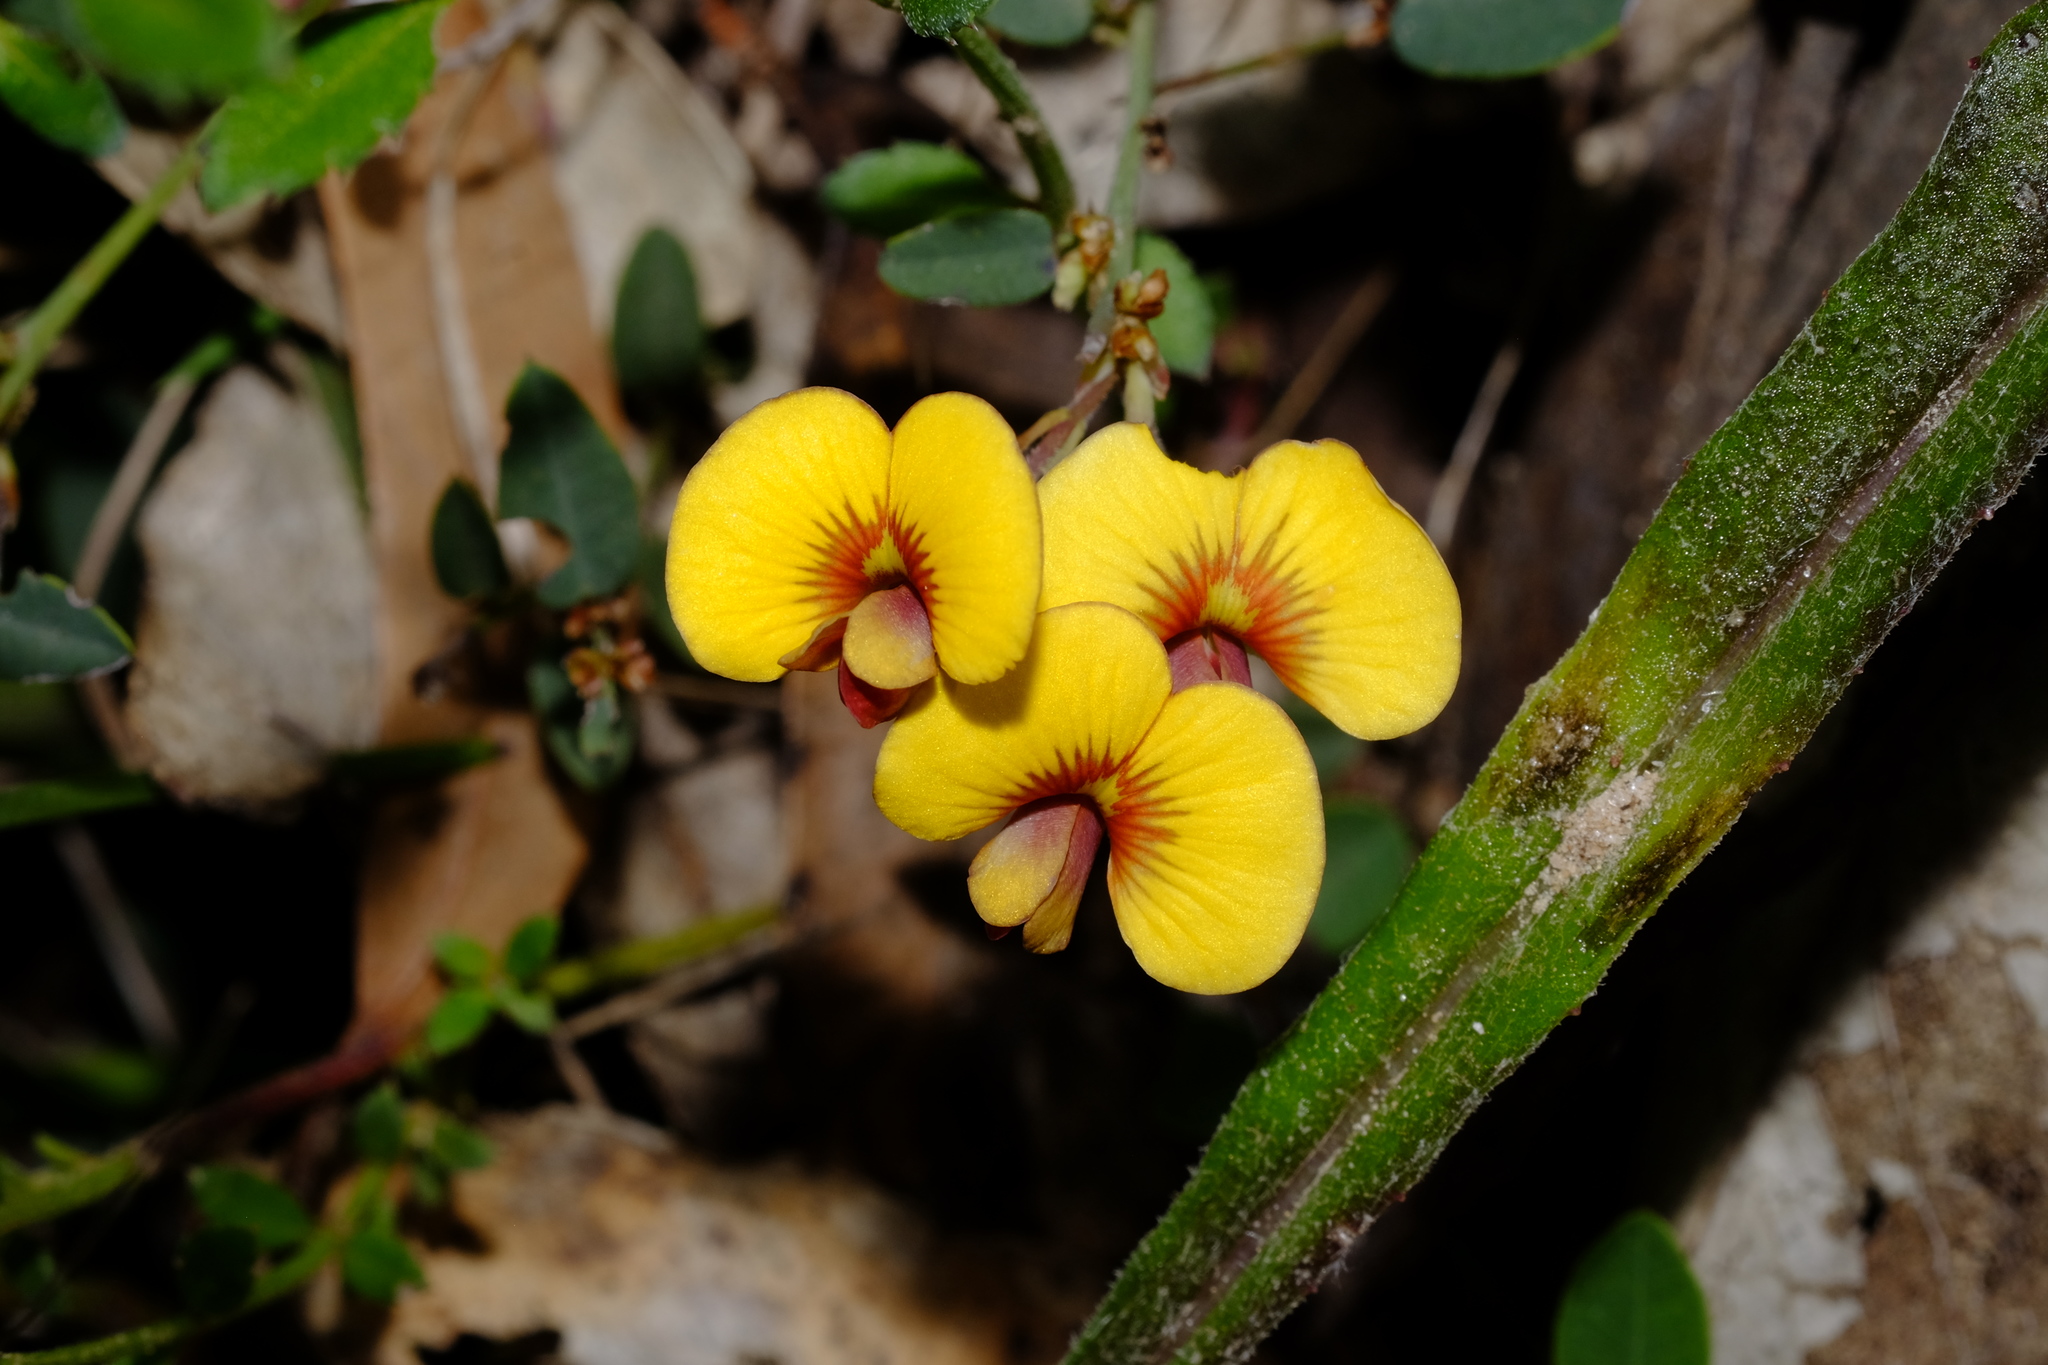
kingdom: Plantae
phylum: Tracheophyta
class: Magnoliopsida
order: Fabales
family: Fabaceae
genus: Bossiaea
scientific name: Bossiaea prostrata
